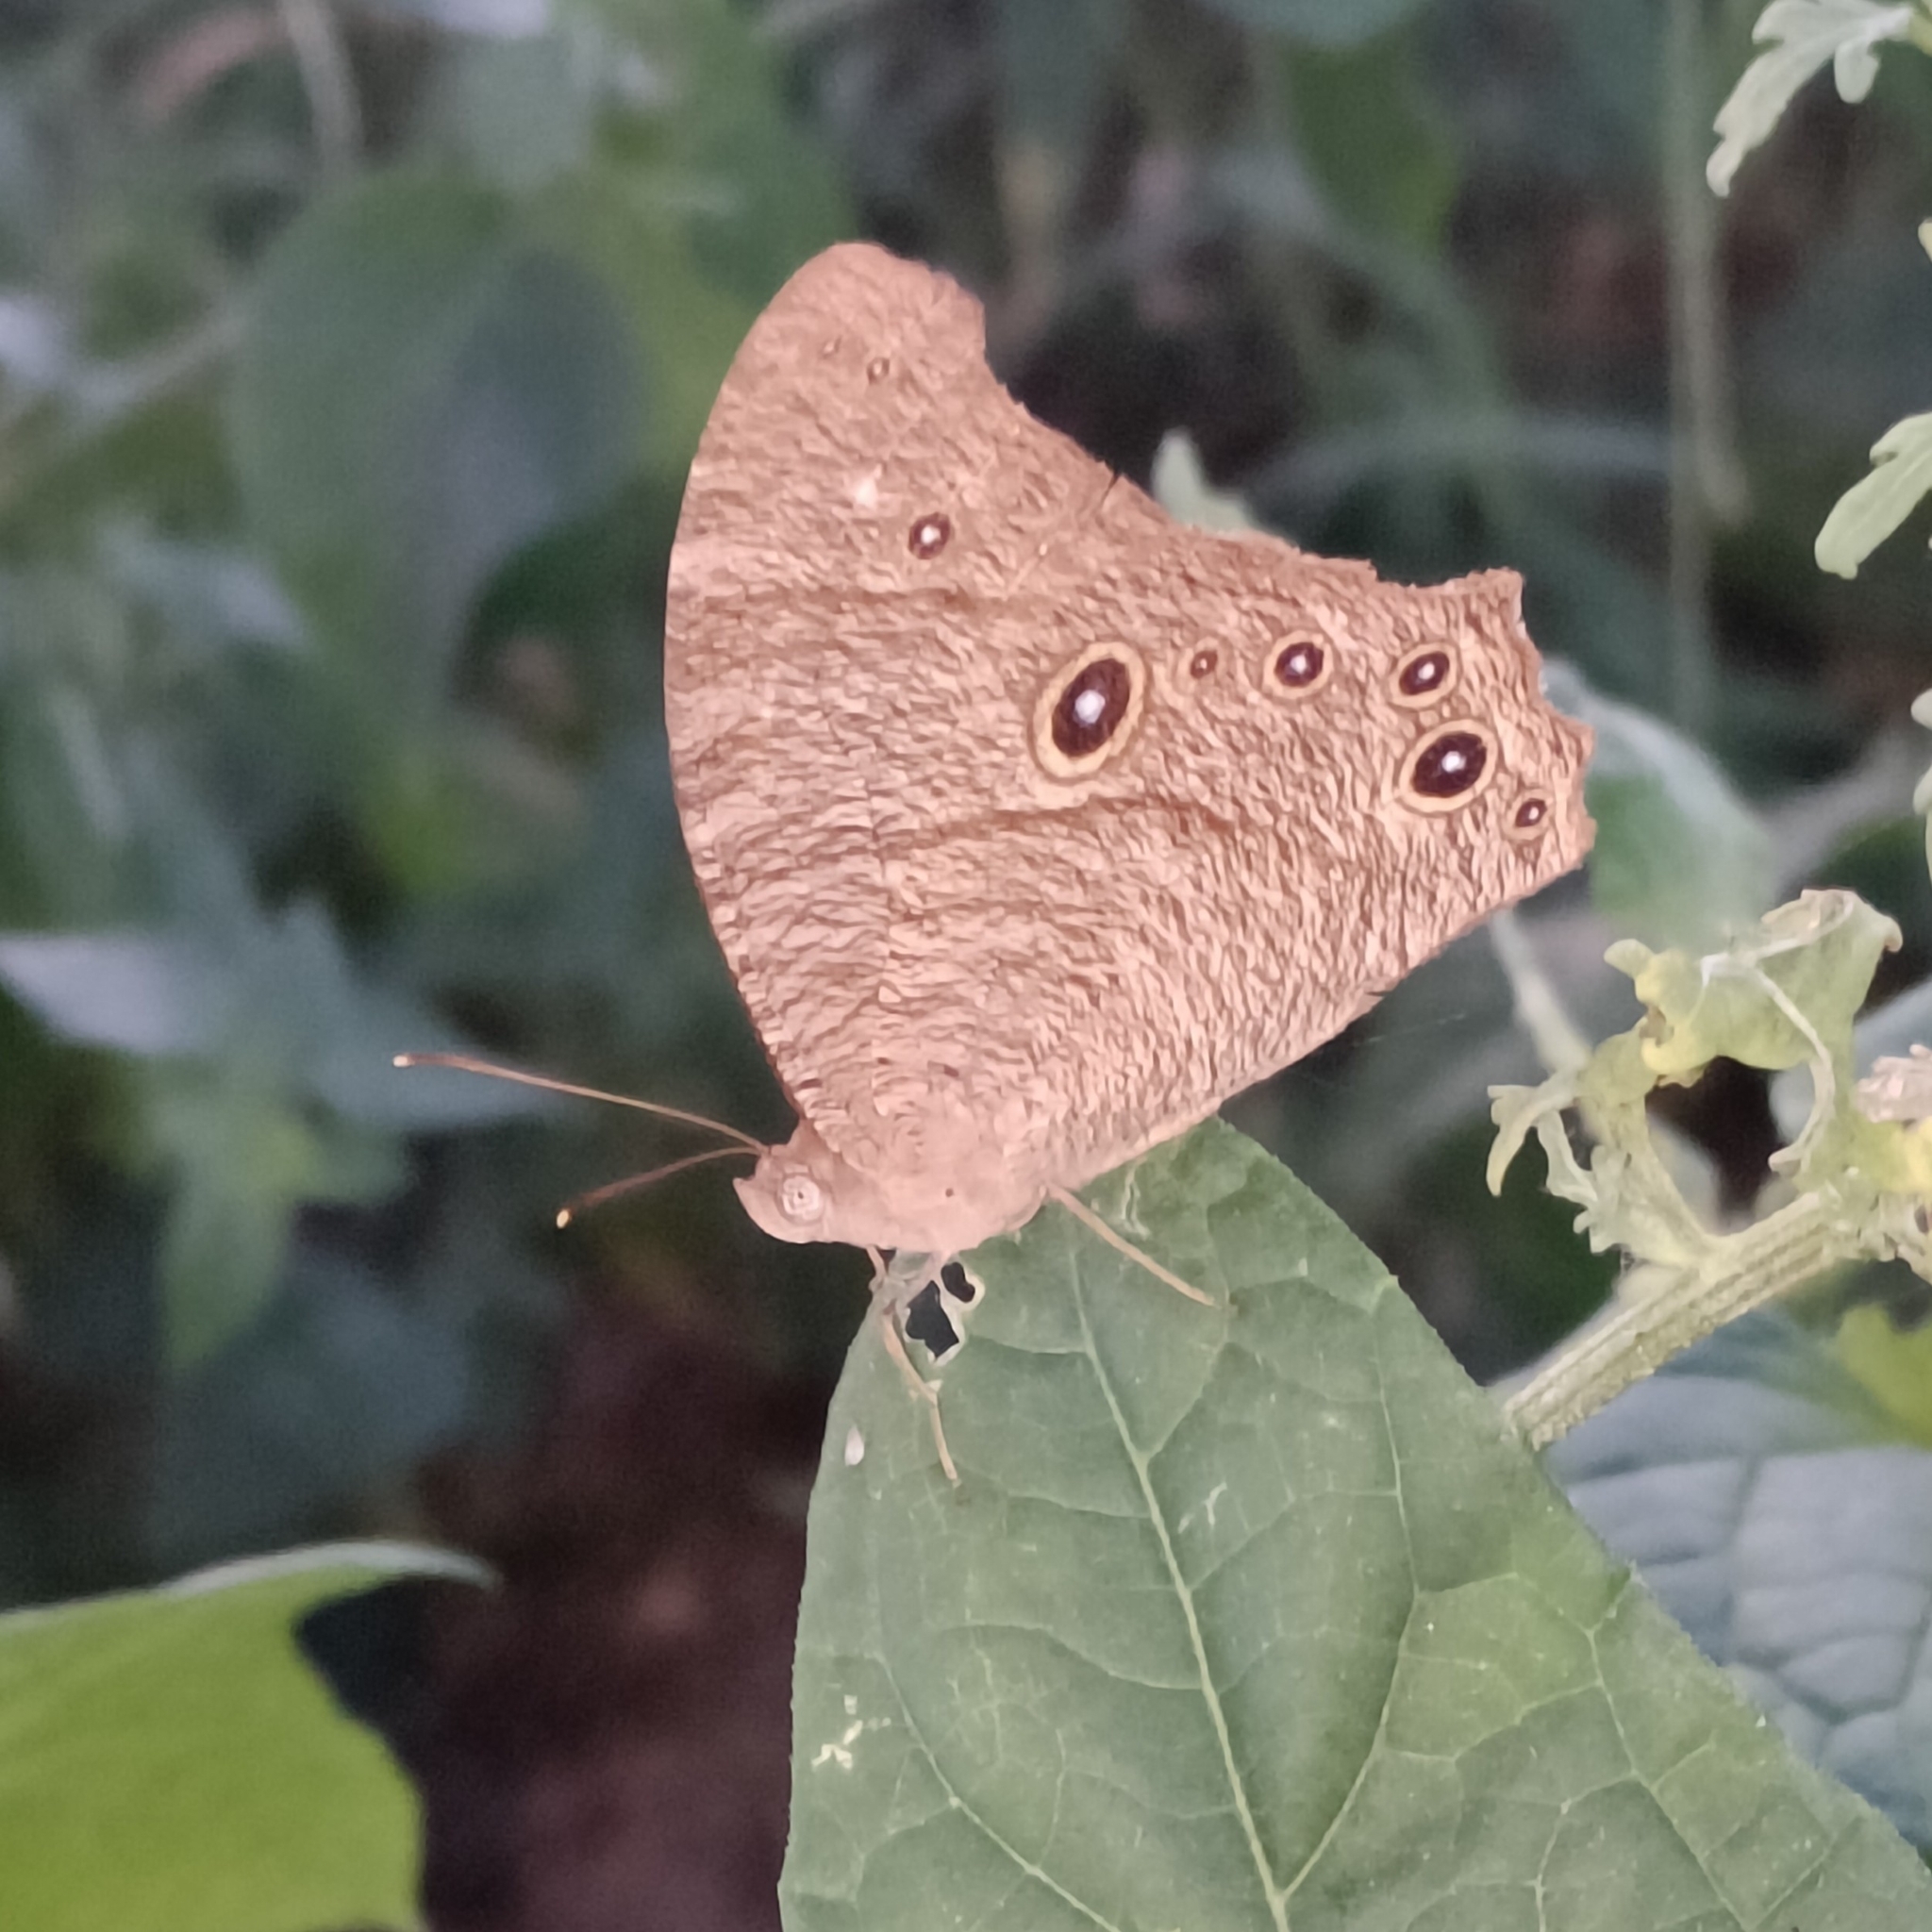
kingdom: Animalia
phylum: Arthropoda
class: Insecta
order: Lepidoptera
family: Nymphalidae
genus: Melanitis
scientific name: Melanitis leda
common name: Twilight brown
